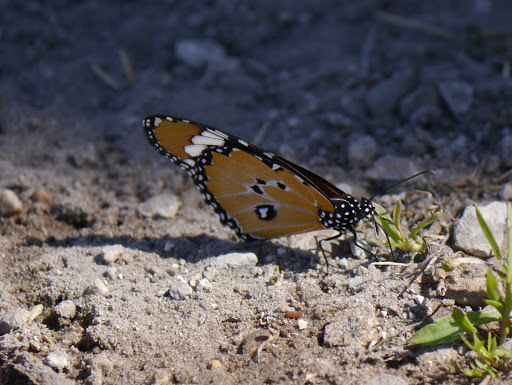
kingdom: Animalia
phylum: Arthropoda
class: Insecta
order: Lepidoptera
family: Nymphalidae
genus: Danaus
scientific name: Danaus chrysippus
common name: Plain tiger
